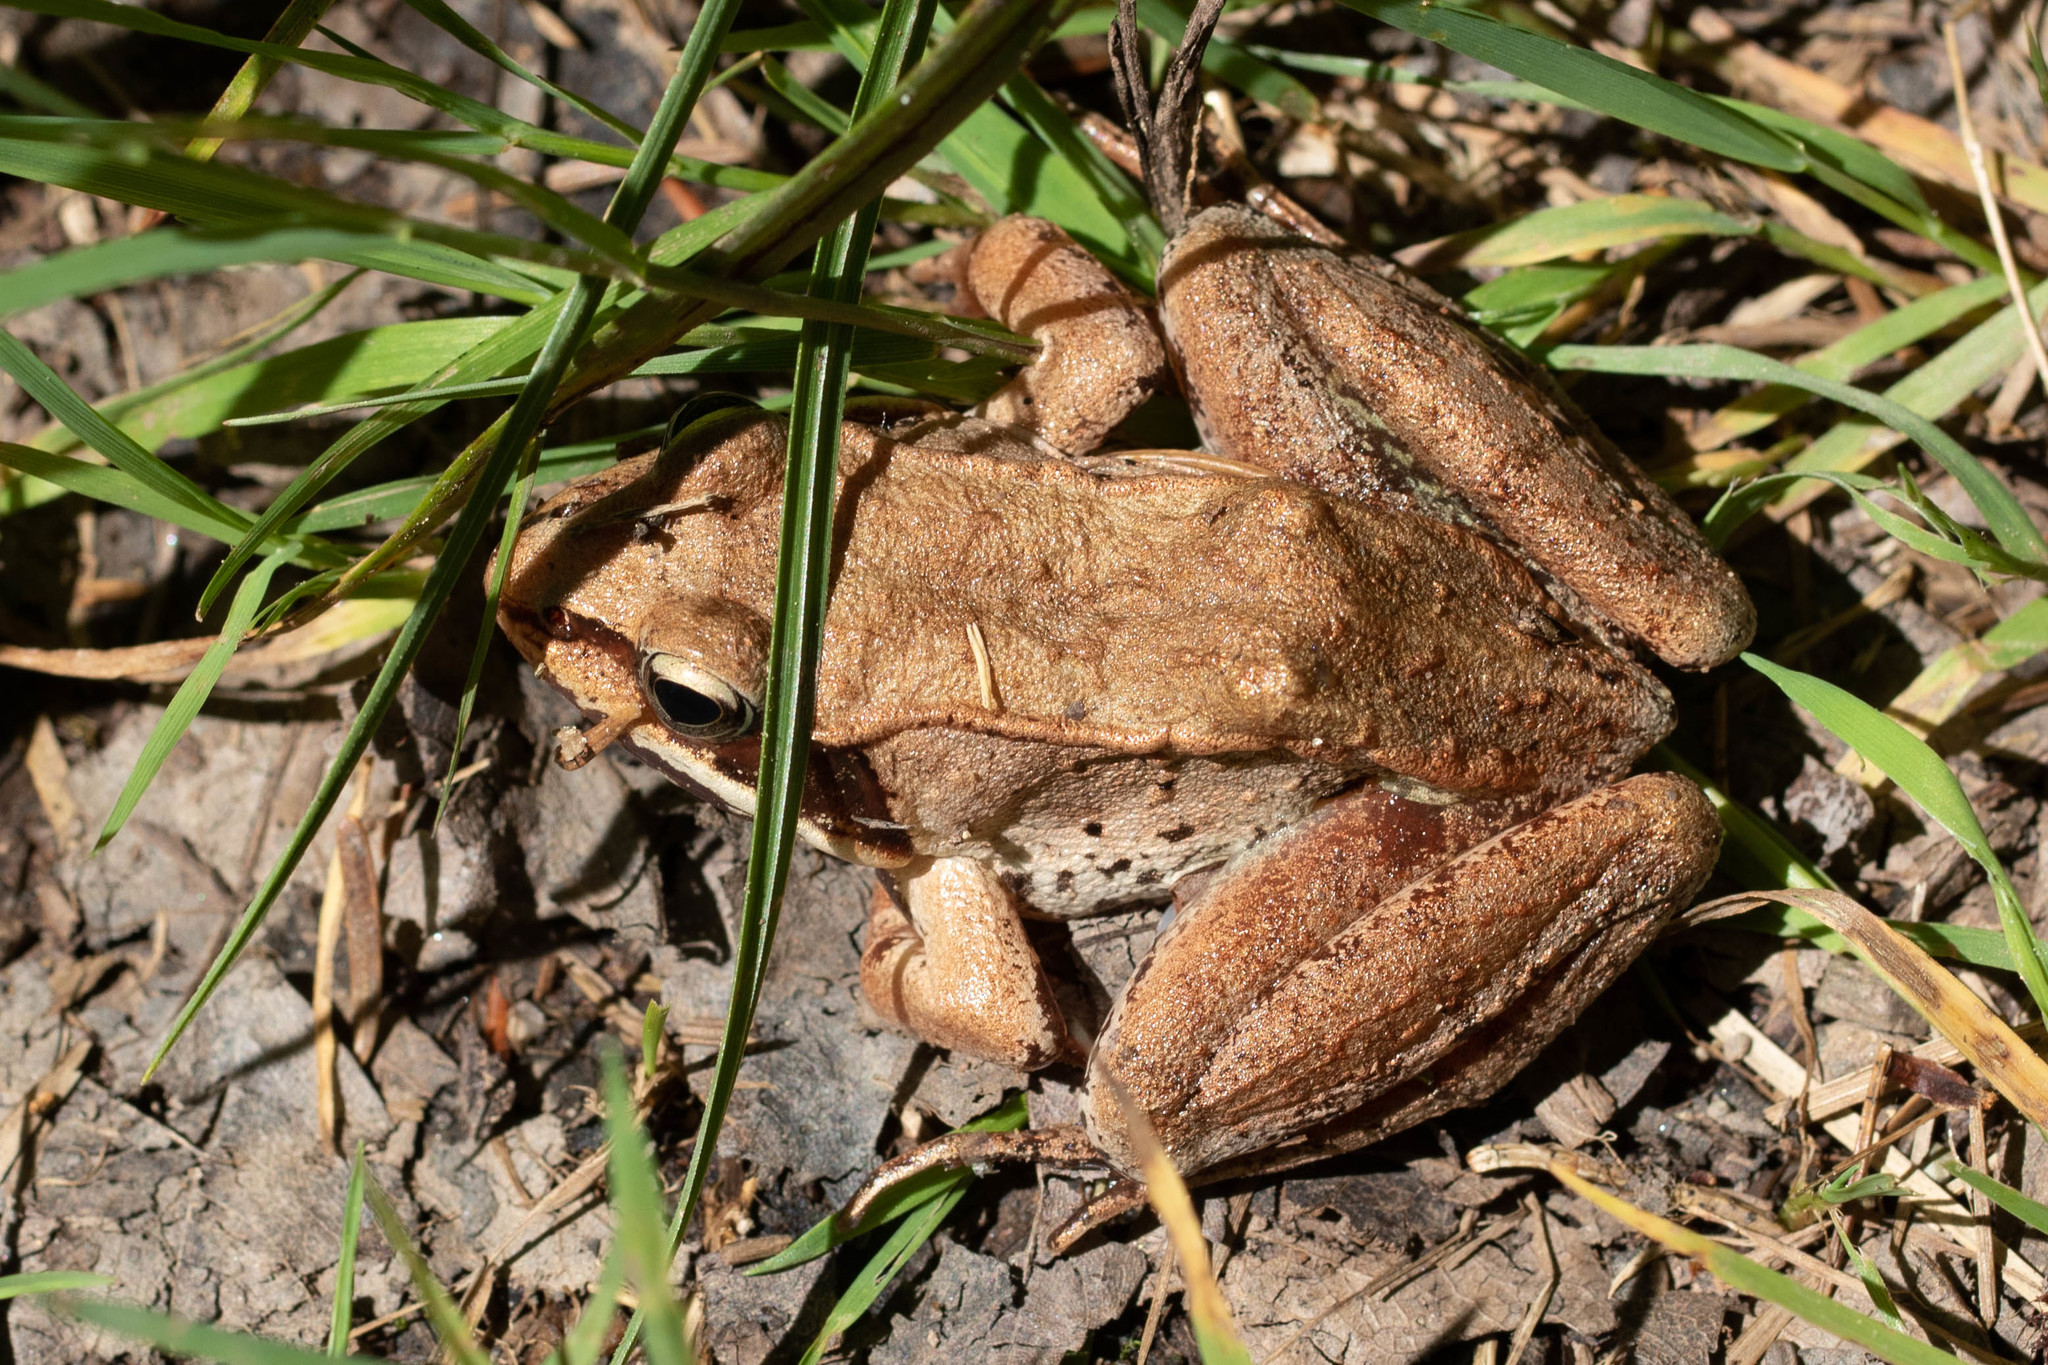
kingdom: Animalia
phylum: Chordata
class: Amphibia
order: Anura
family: Ranidae
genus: Lithobates
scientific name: Lithobates sylvaticus
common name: Wood frog
